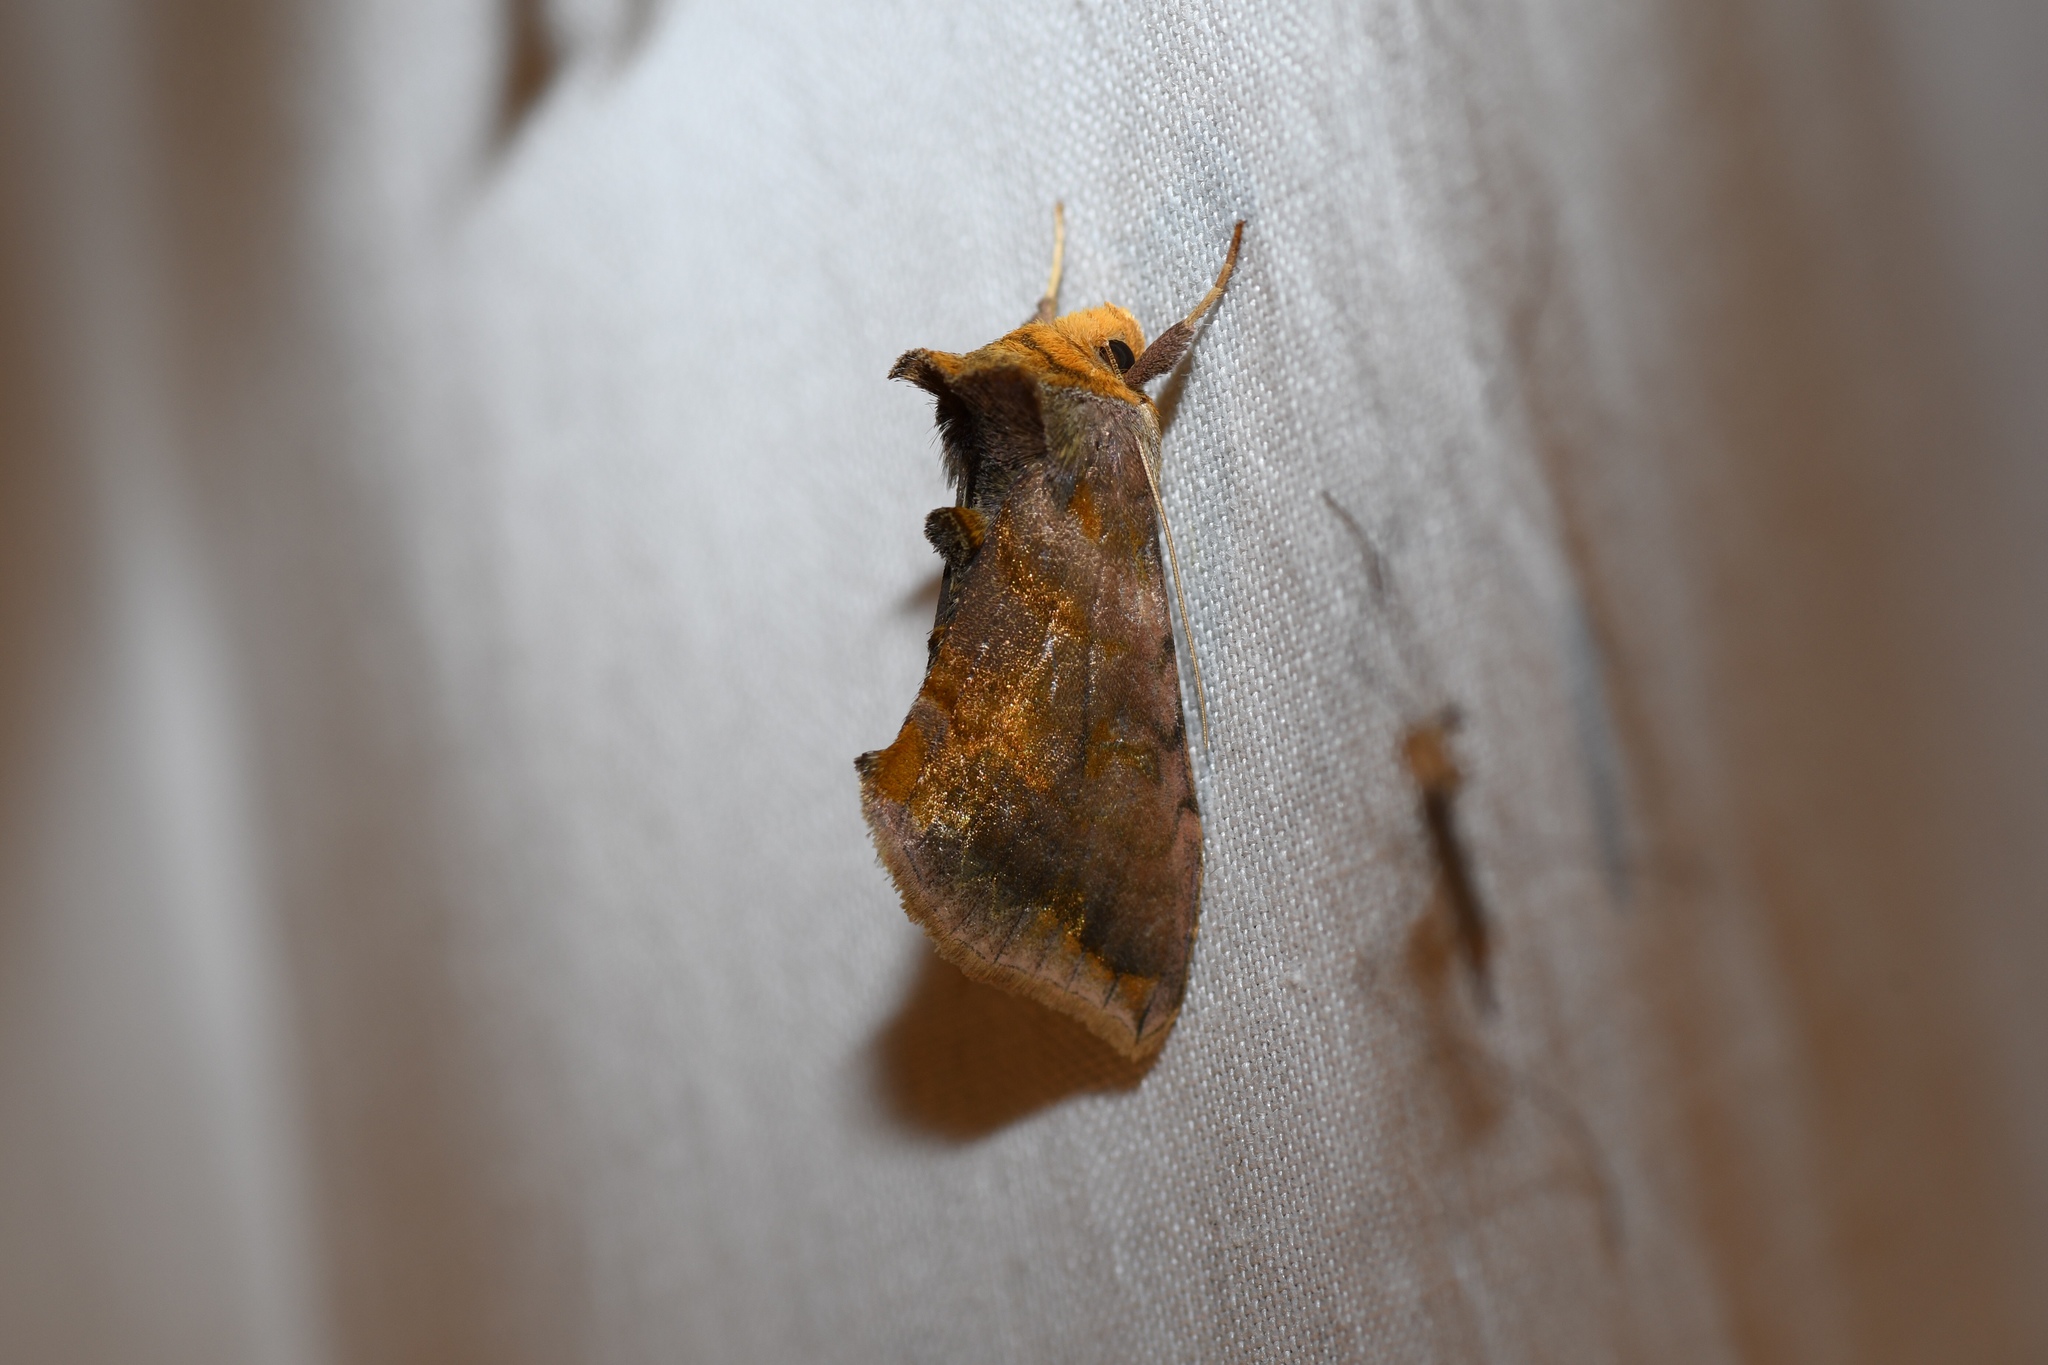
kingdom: Animalia
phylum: Arthropoda
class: Insecta
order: Lepidoptera
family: Noctuidae
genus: Allagrapha
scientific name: Allagrapha aerea
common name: Unspotted looper moth
